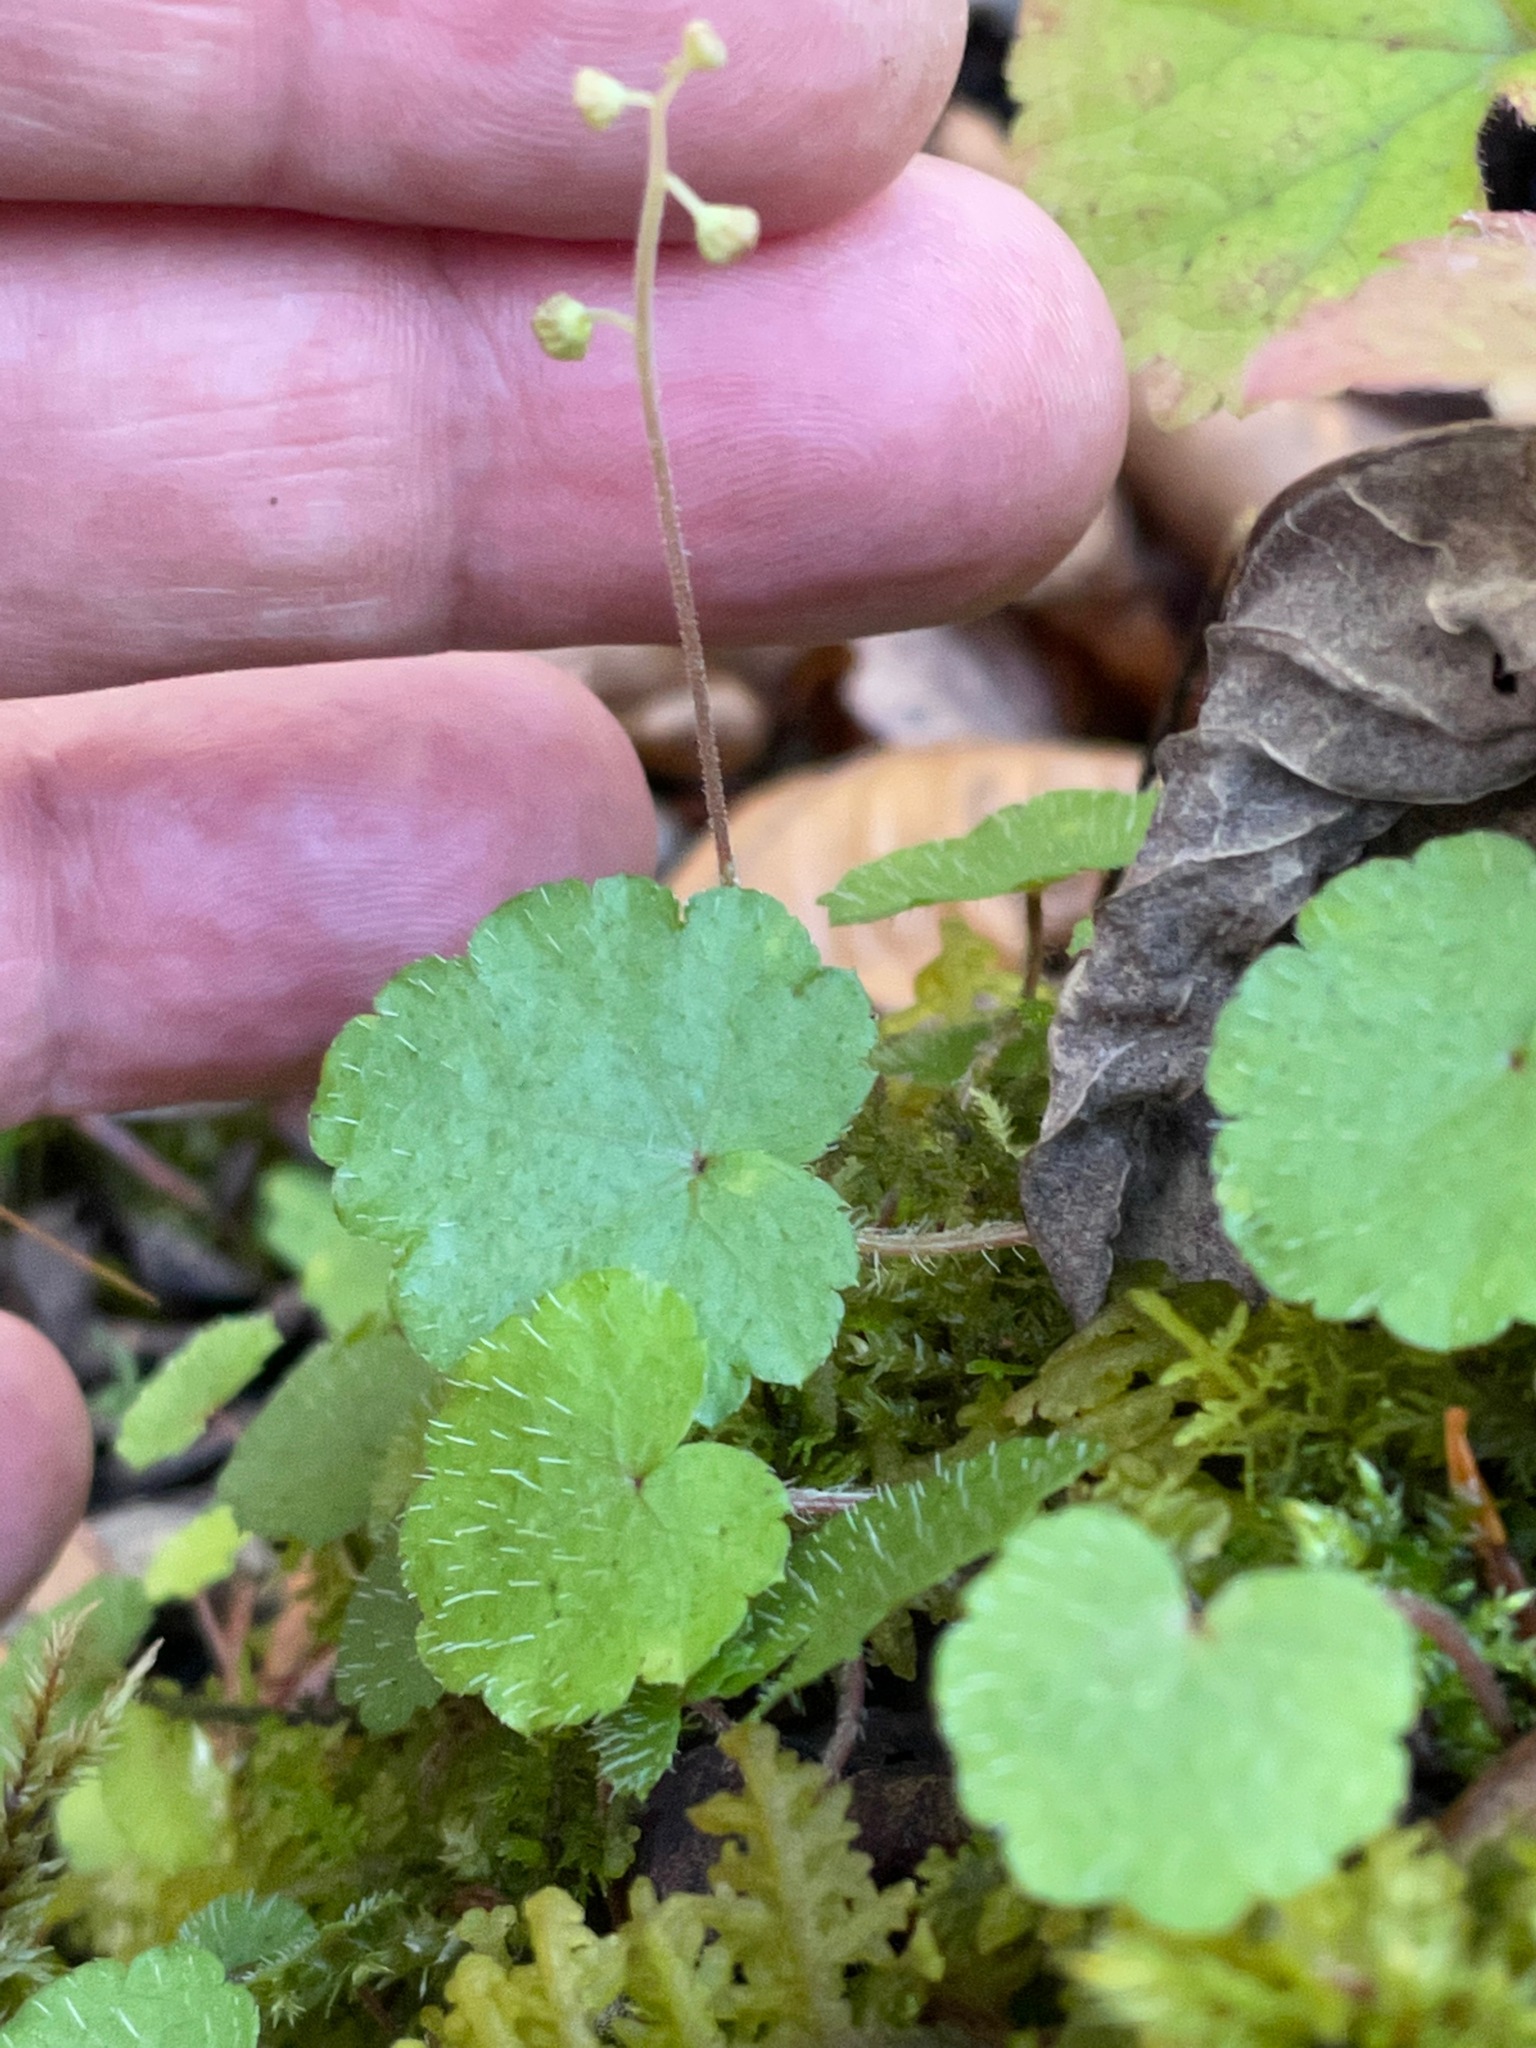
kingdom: Plantae
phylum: Tracheophyta
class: Magnoliopsida
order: Saxifragales
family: Saxifragaceae
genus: Mitella
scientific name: Mitella nuda
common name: Bare-stemmed bishop's-cap
